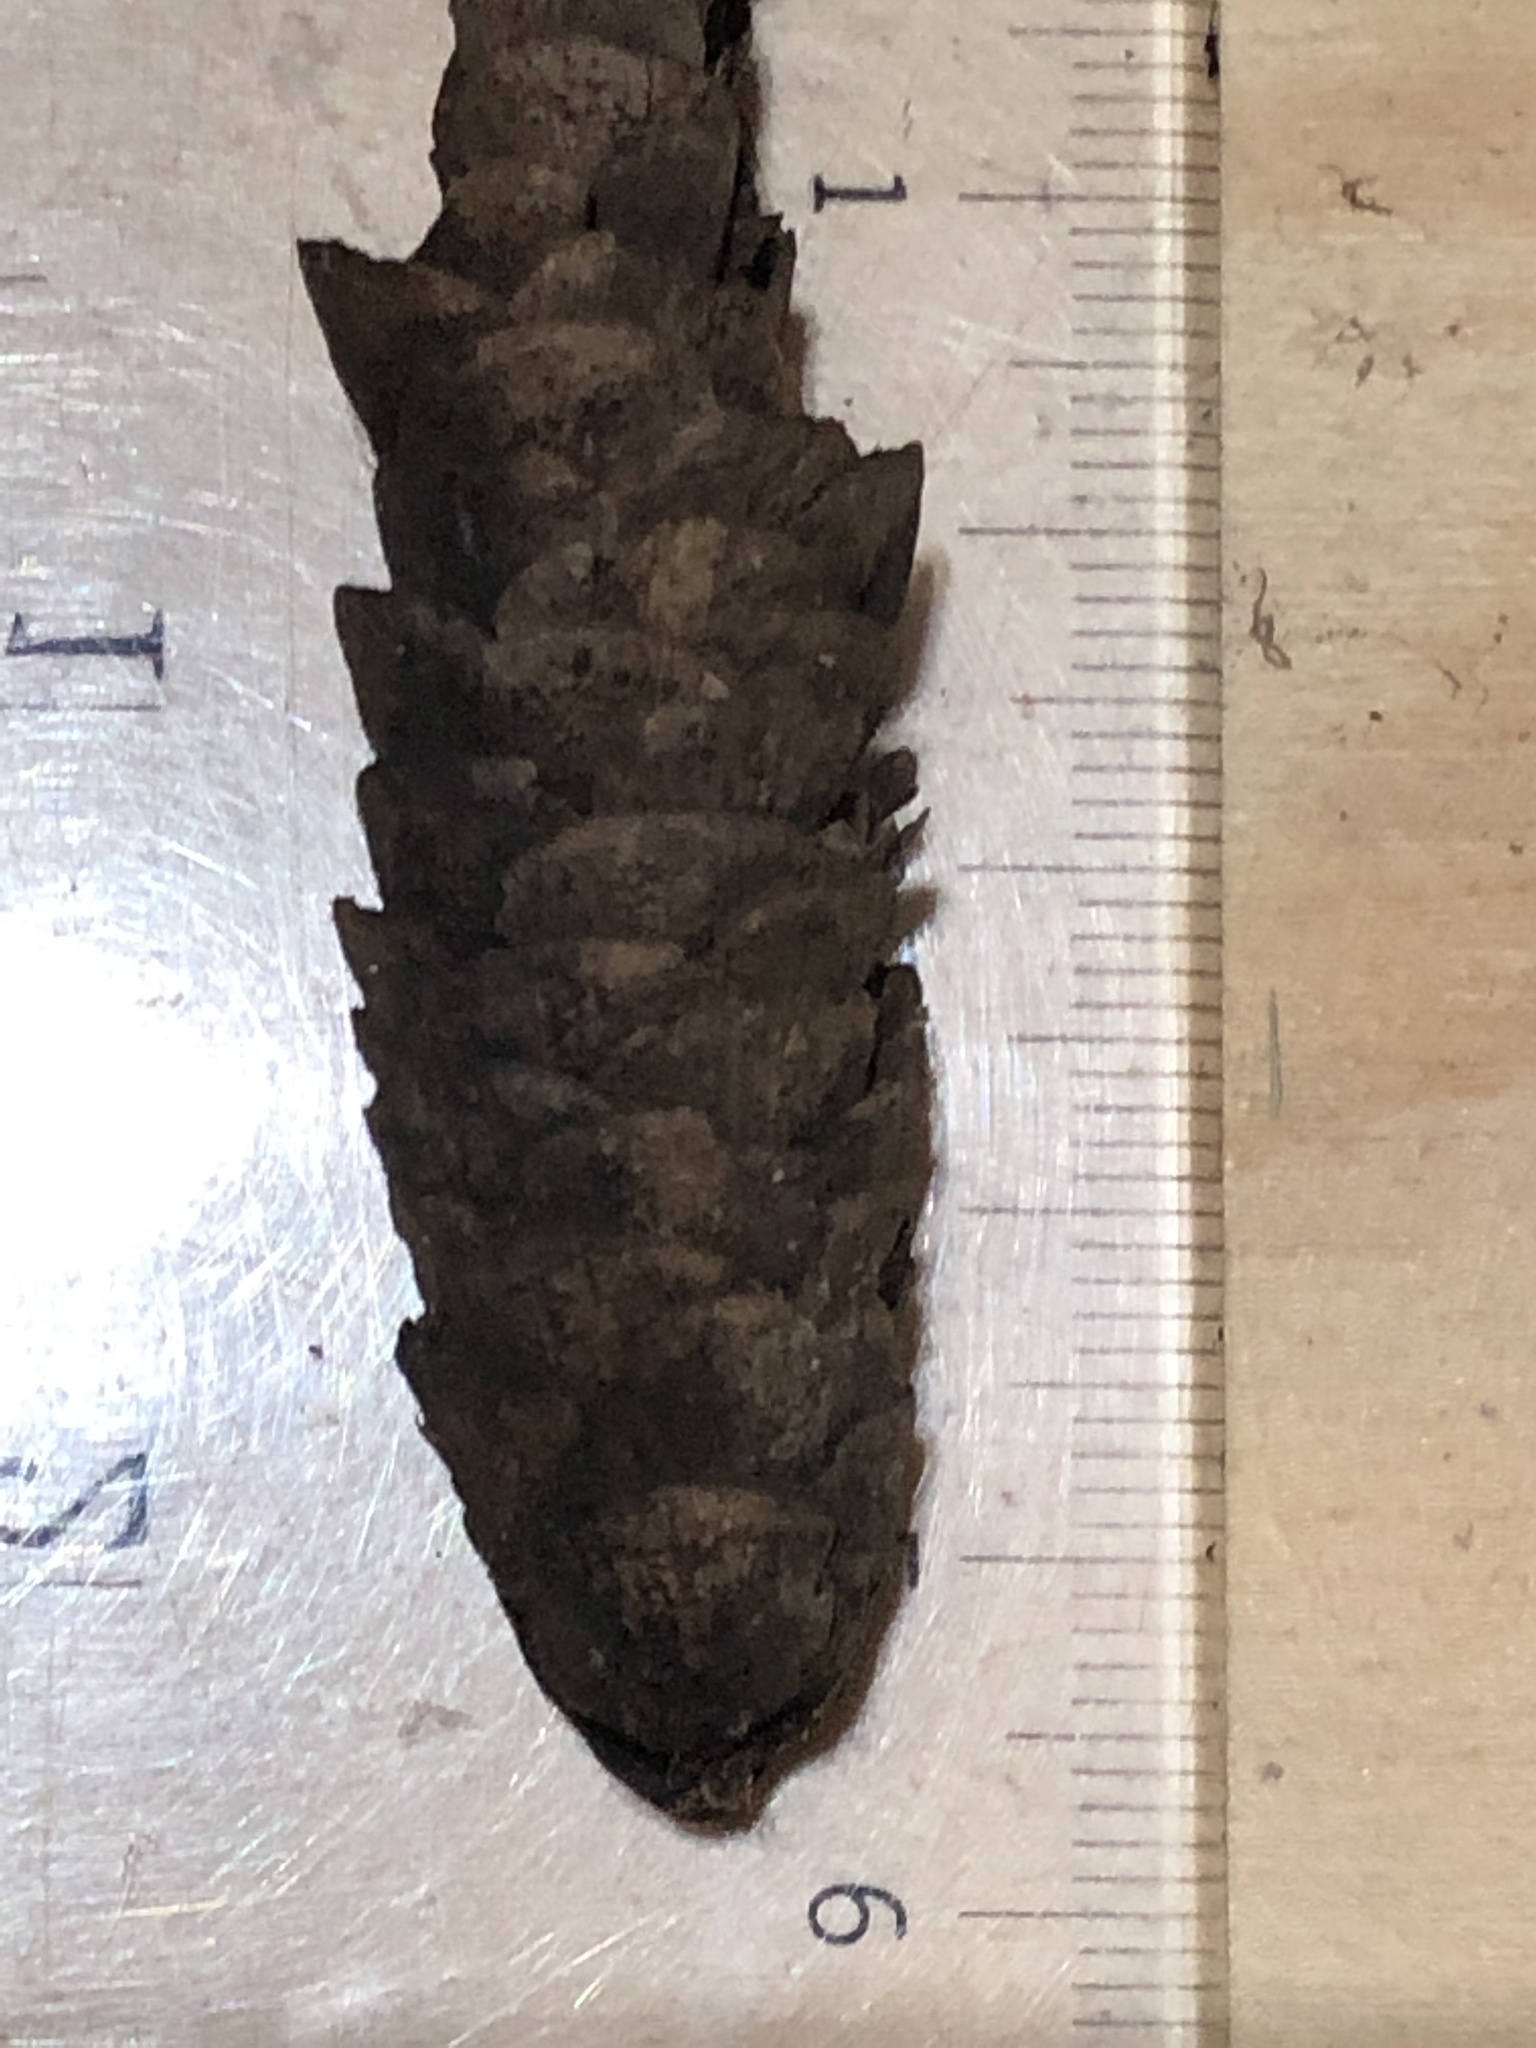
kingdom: Plantae
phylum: Tracheophyta
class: Pinopsida
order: Pinales
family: Pinaceae
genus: Picea
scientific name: Picea glauca
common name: White spruce
